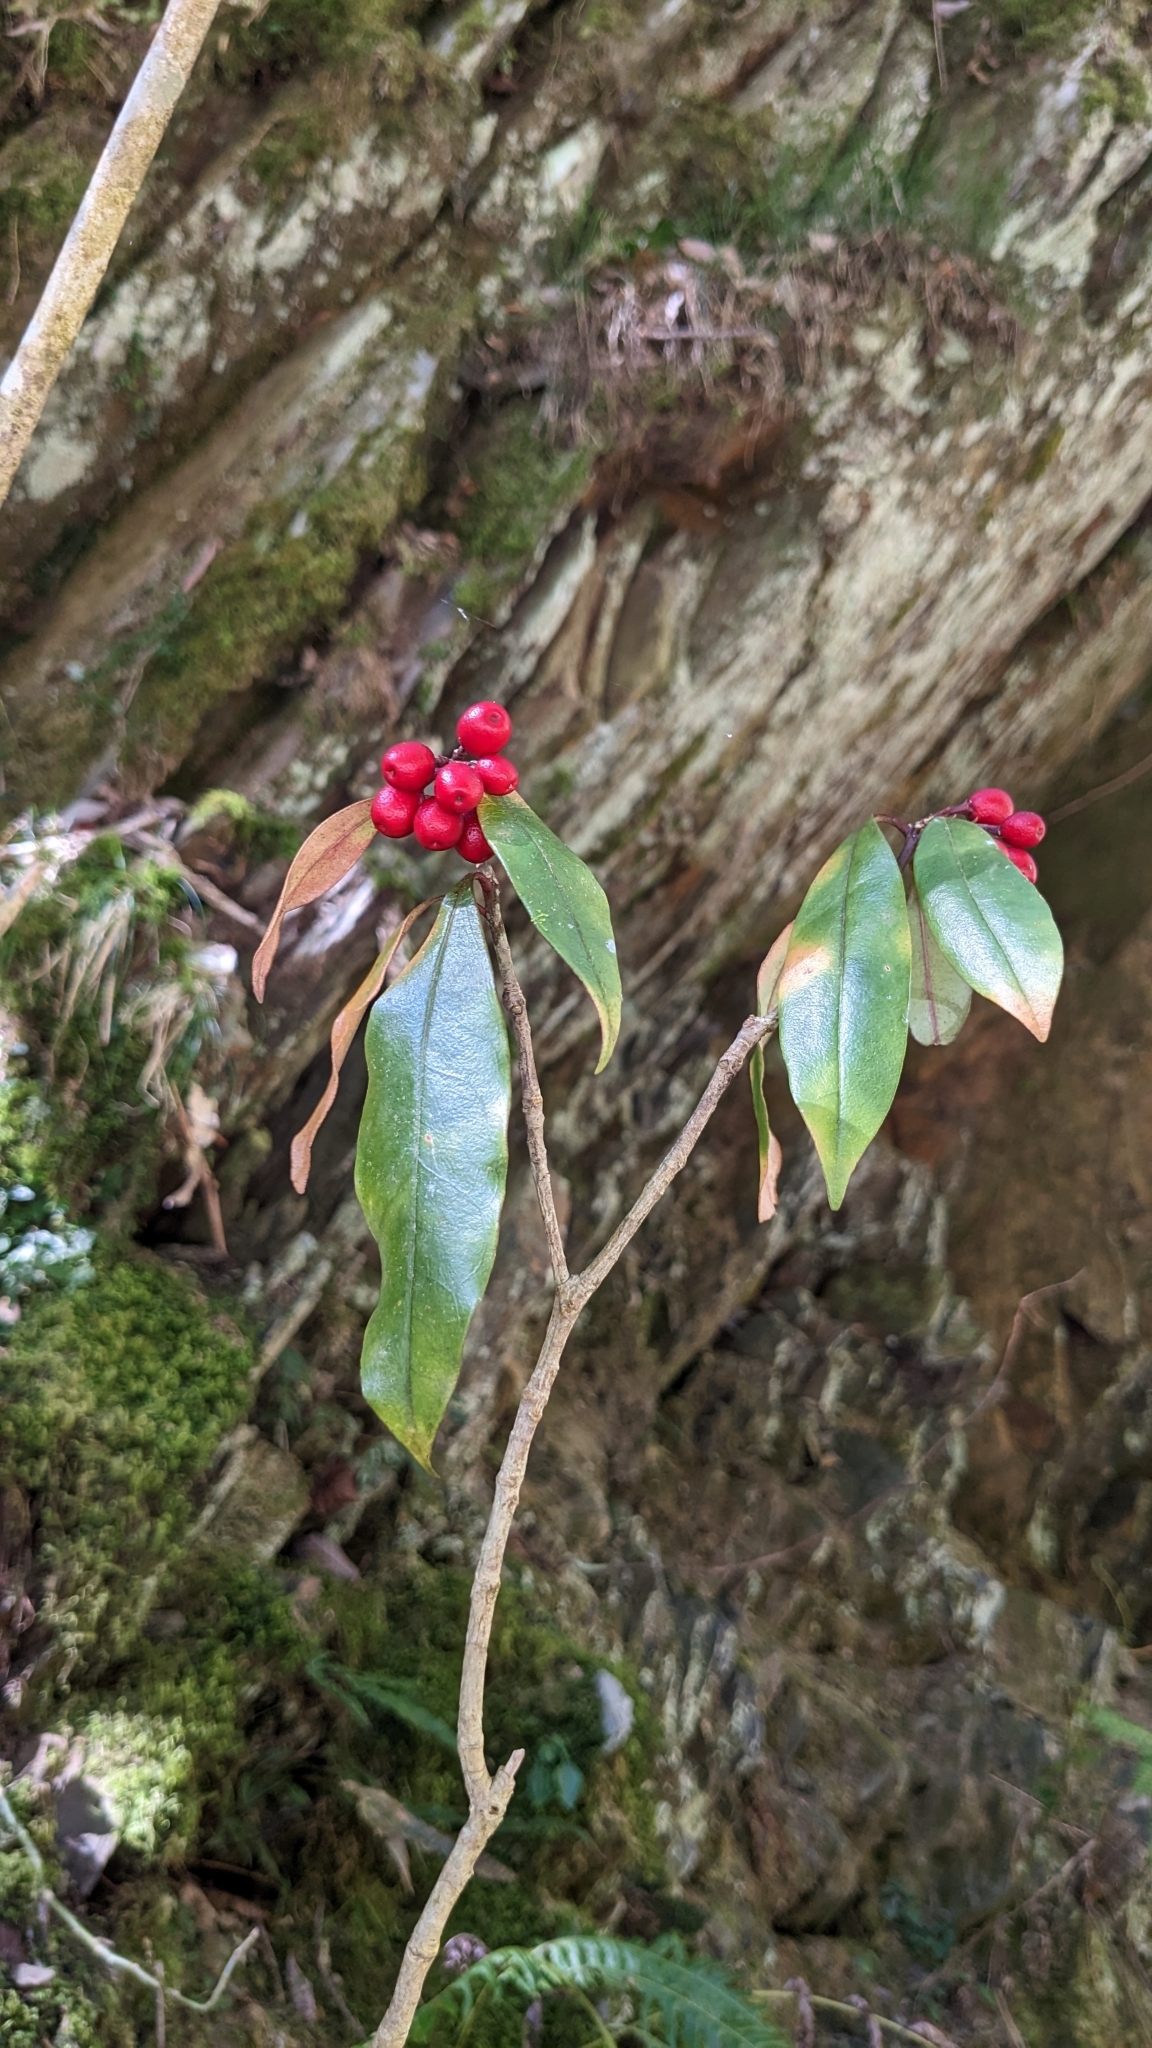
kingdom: Plantae
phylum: Tracheophyta
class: Magnoliopsida
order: Sapindales
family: Rutaceae
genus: Skimmia
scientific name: Skimmia japonica
